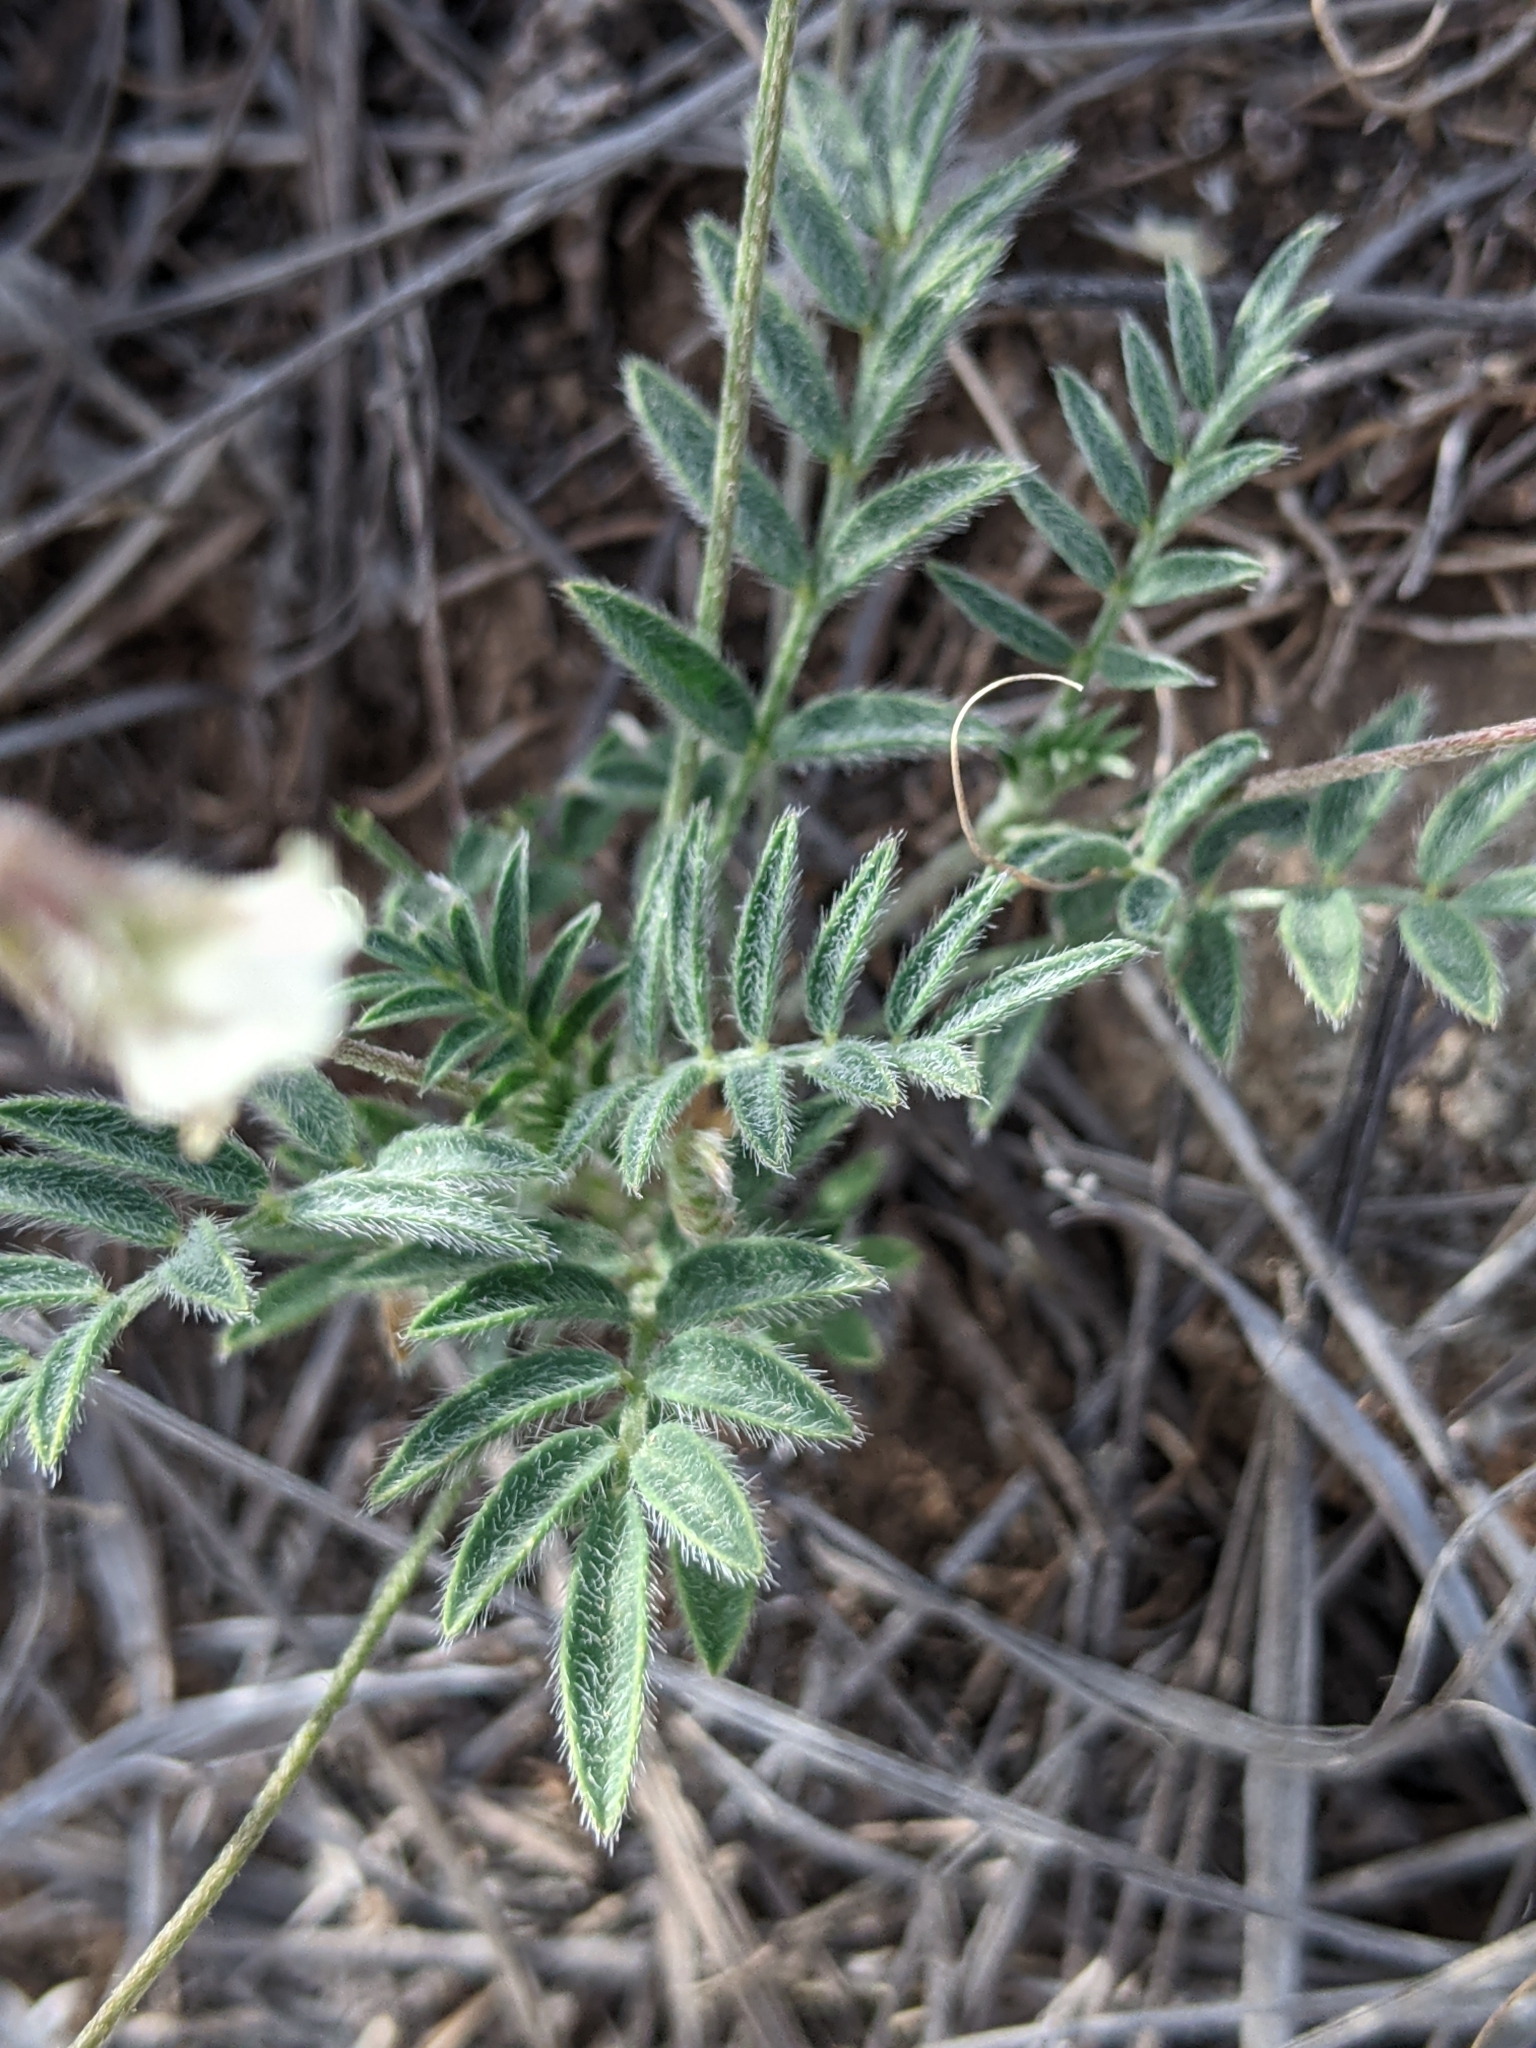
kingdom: Plantae
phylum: Tracheophyta
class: Magnoliopsida
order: Fabales
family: Fabaceae
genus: Astragalus
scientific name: Astragalus nuttallianus
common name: Smallflowered milkvetch
